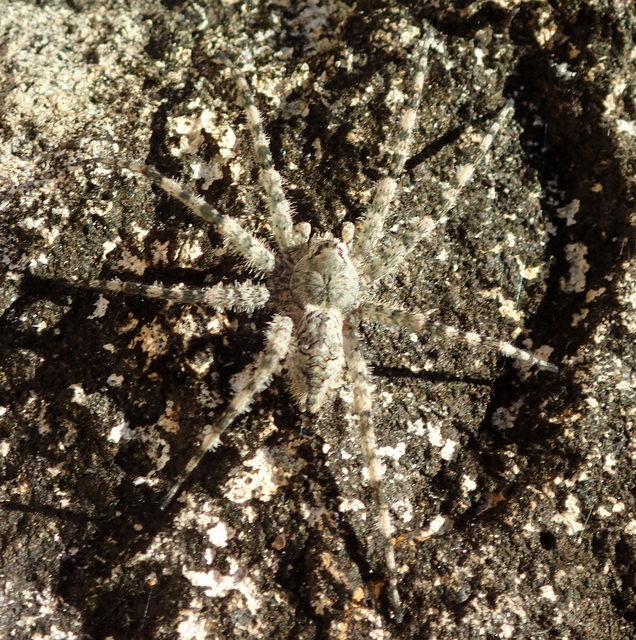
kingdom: Animalia
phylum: Arthropoda
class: Arachnida
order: Araneae
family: Pisauridae
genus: Dolomedes
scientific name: Dolomedes albineus
